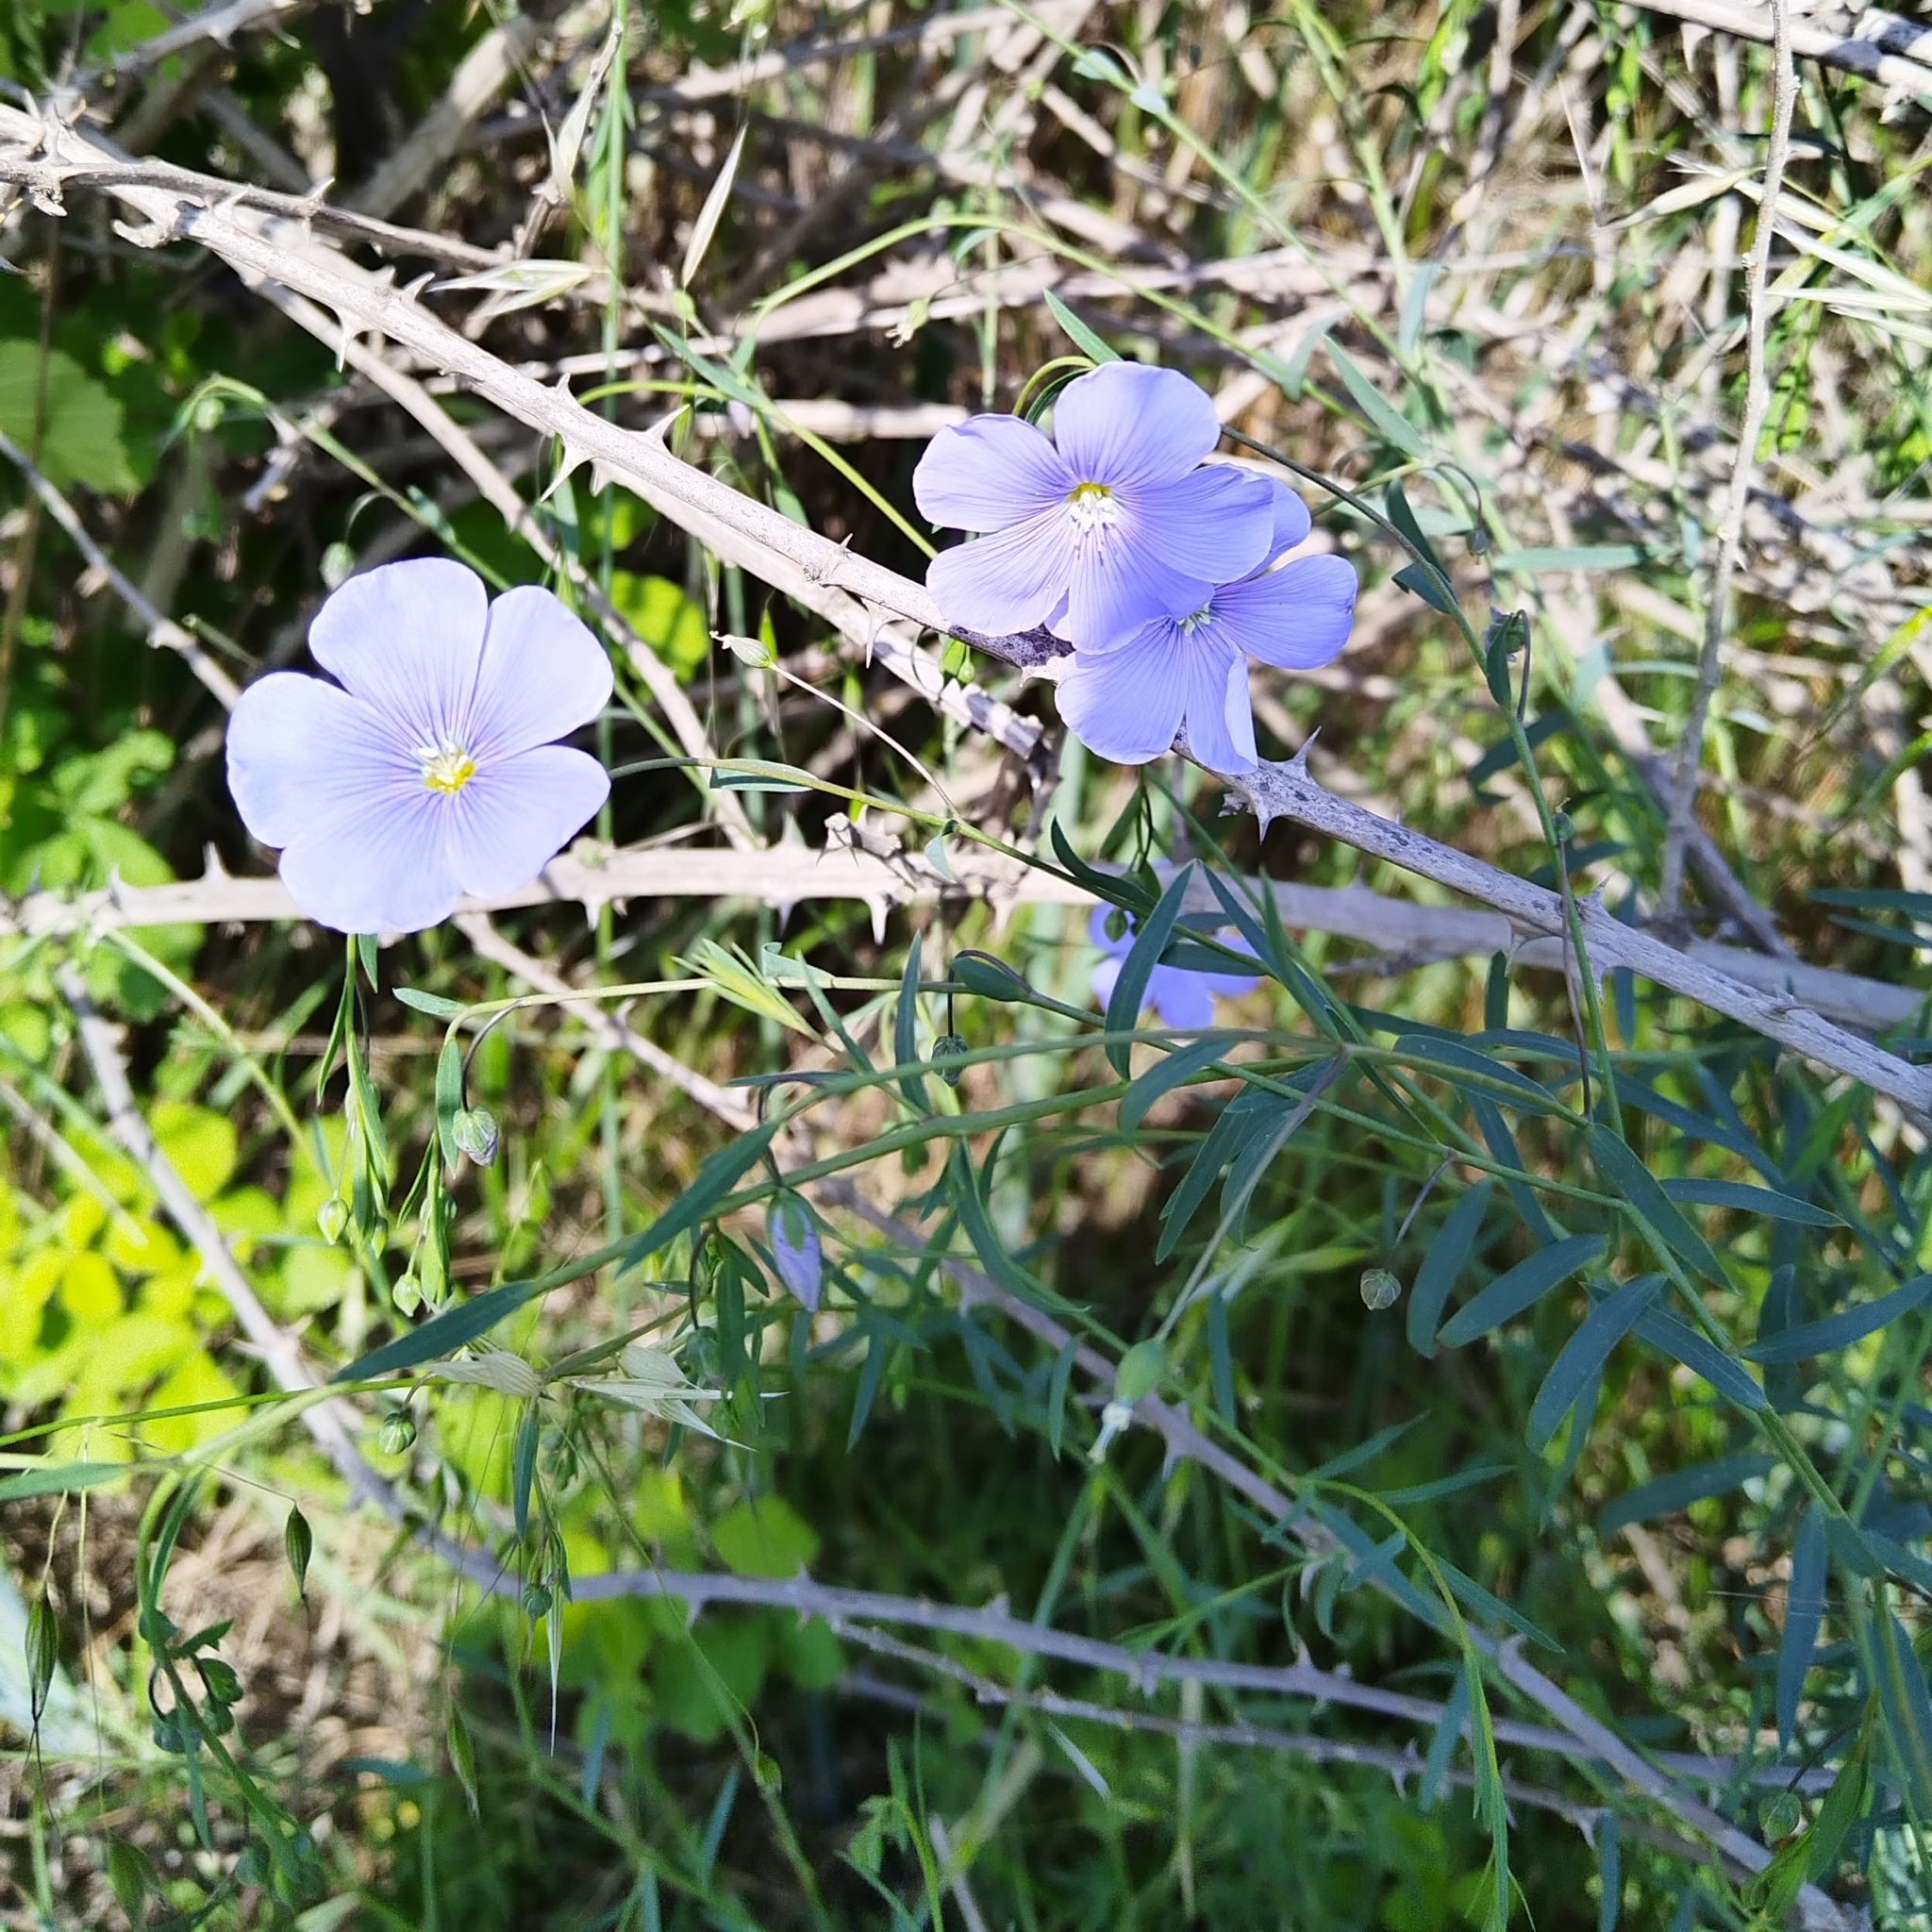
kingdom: Plantae
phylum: Tracheophyta
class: Magnoliopsida
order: Malpighiales
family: Linaceae
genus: Linum
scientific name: Linum austriacum
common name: Austrian flax
